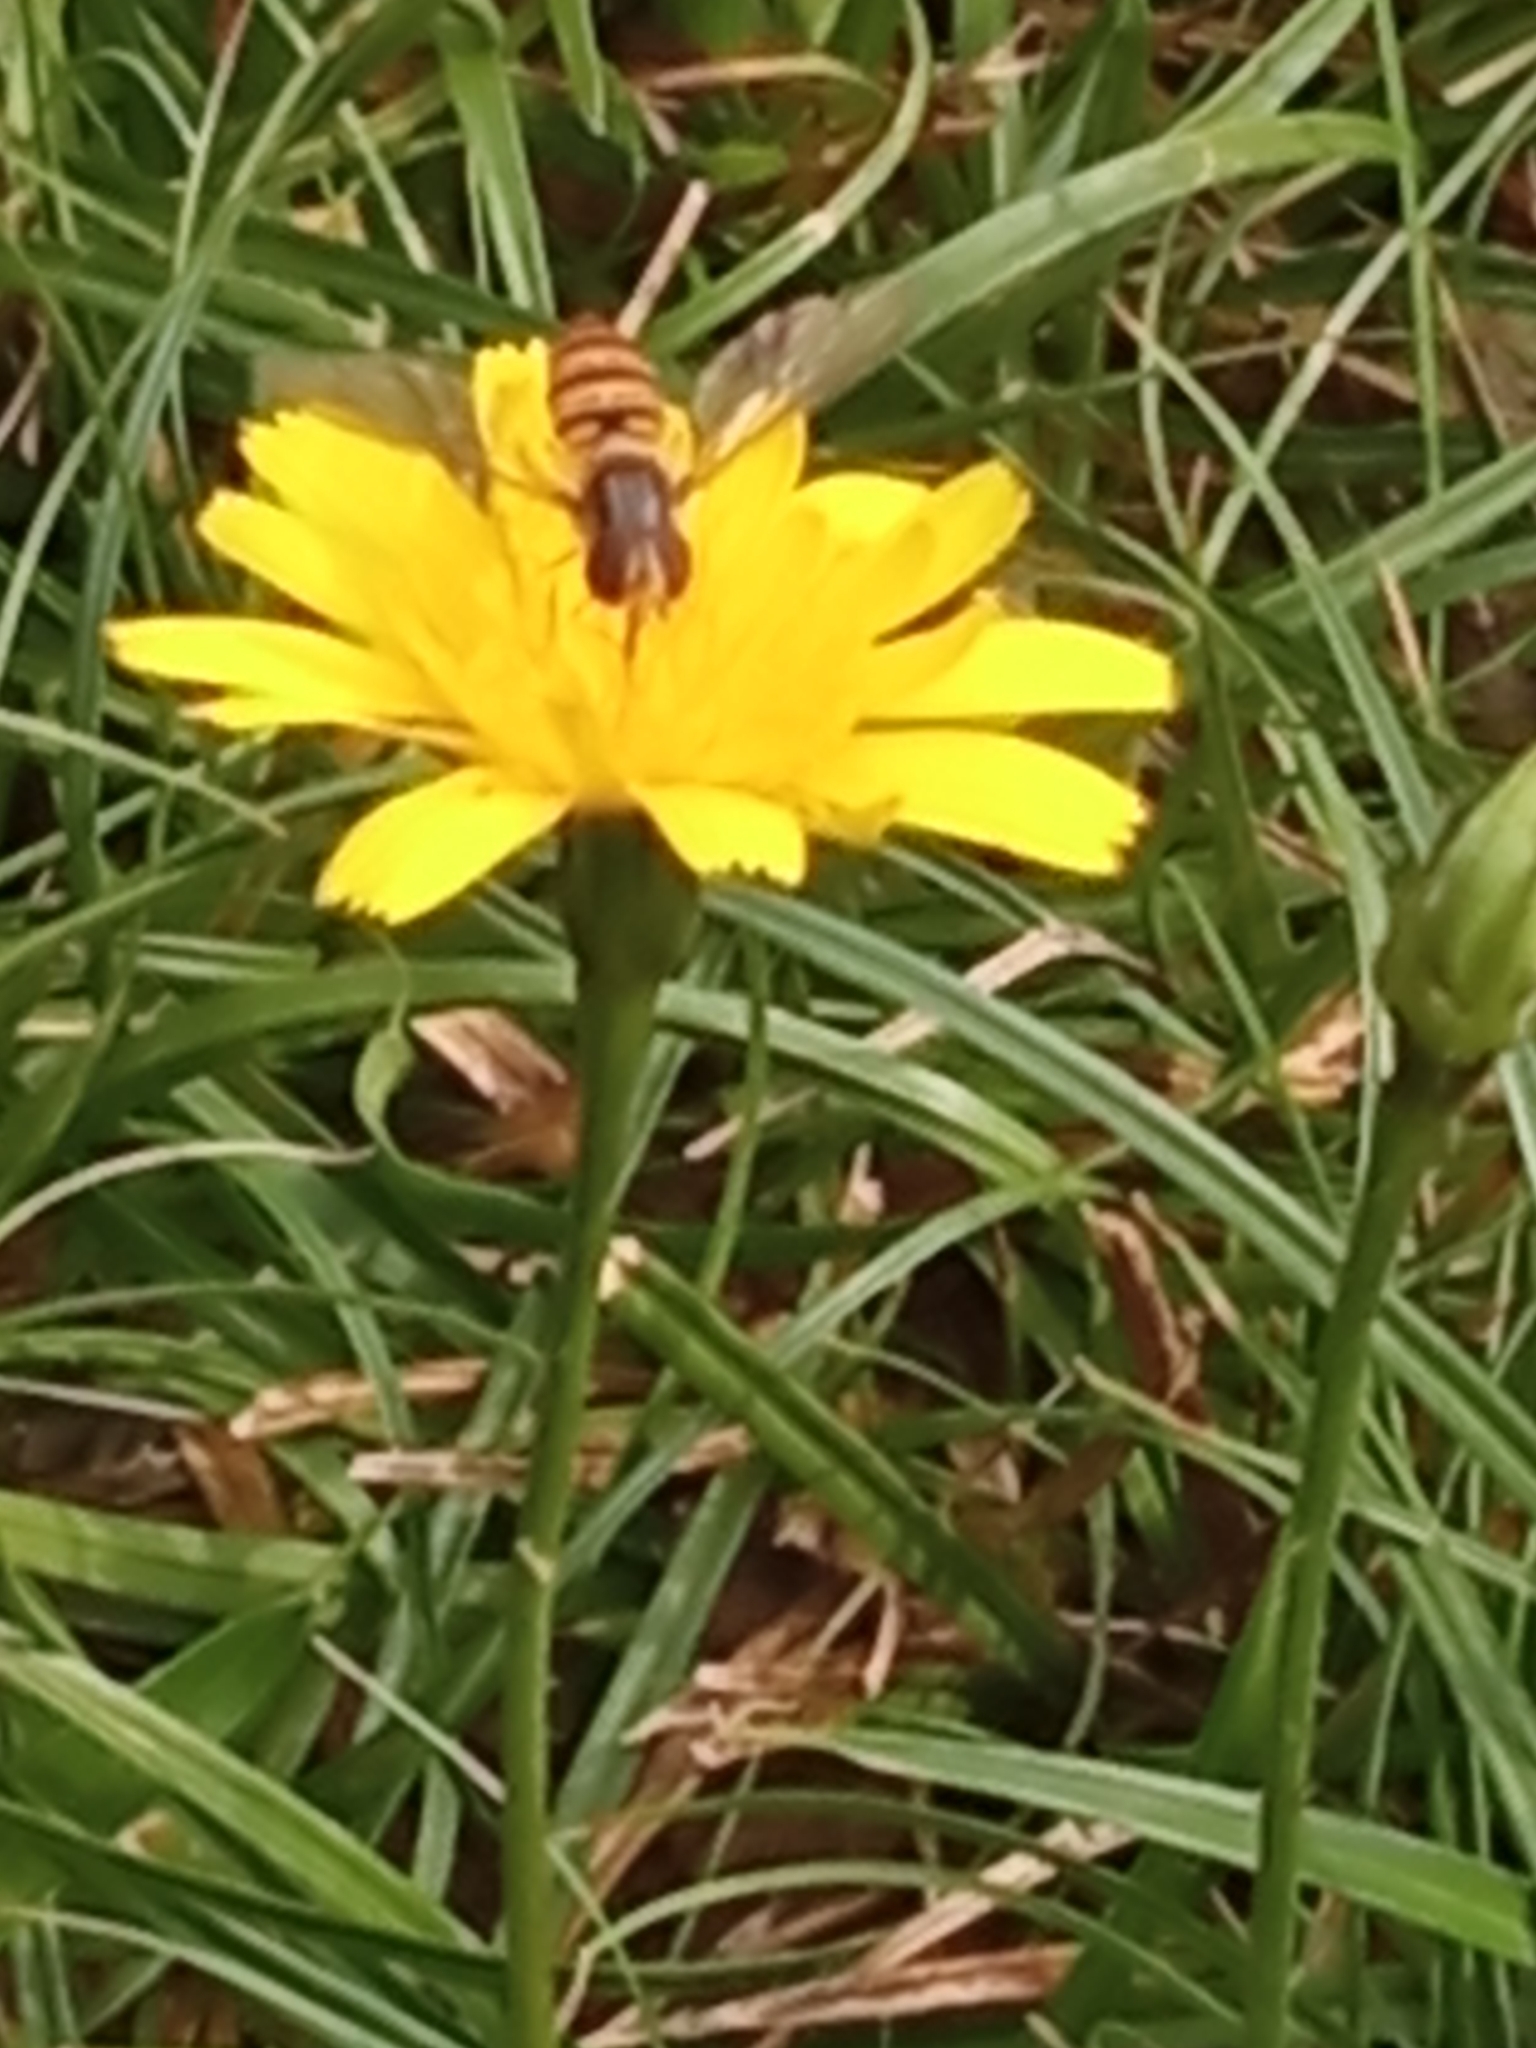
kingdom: Animalia
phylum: Arthropoda
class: Insecta
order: Diptera
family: Syrphidae
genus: Episyrphus
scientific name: Episyrphus balteatus
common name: Marmalade hoverfly
